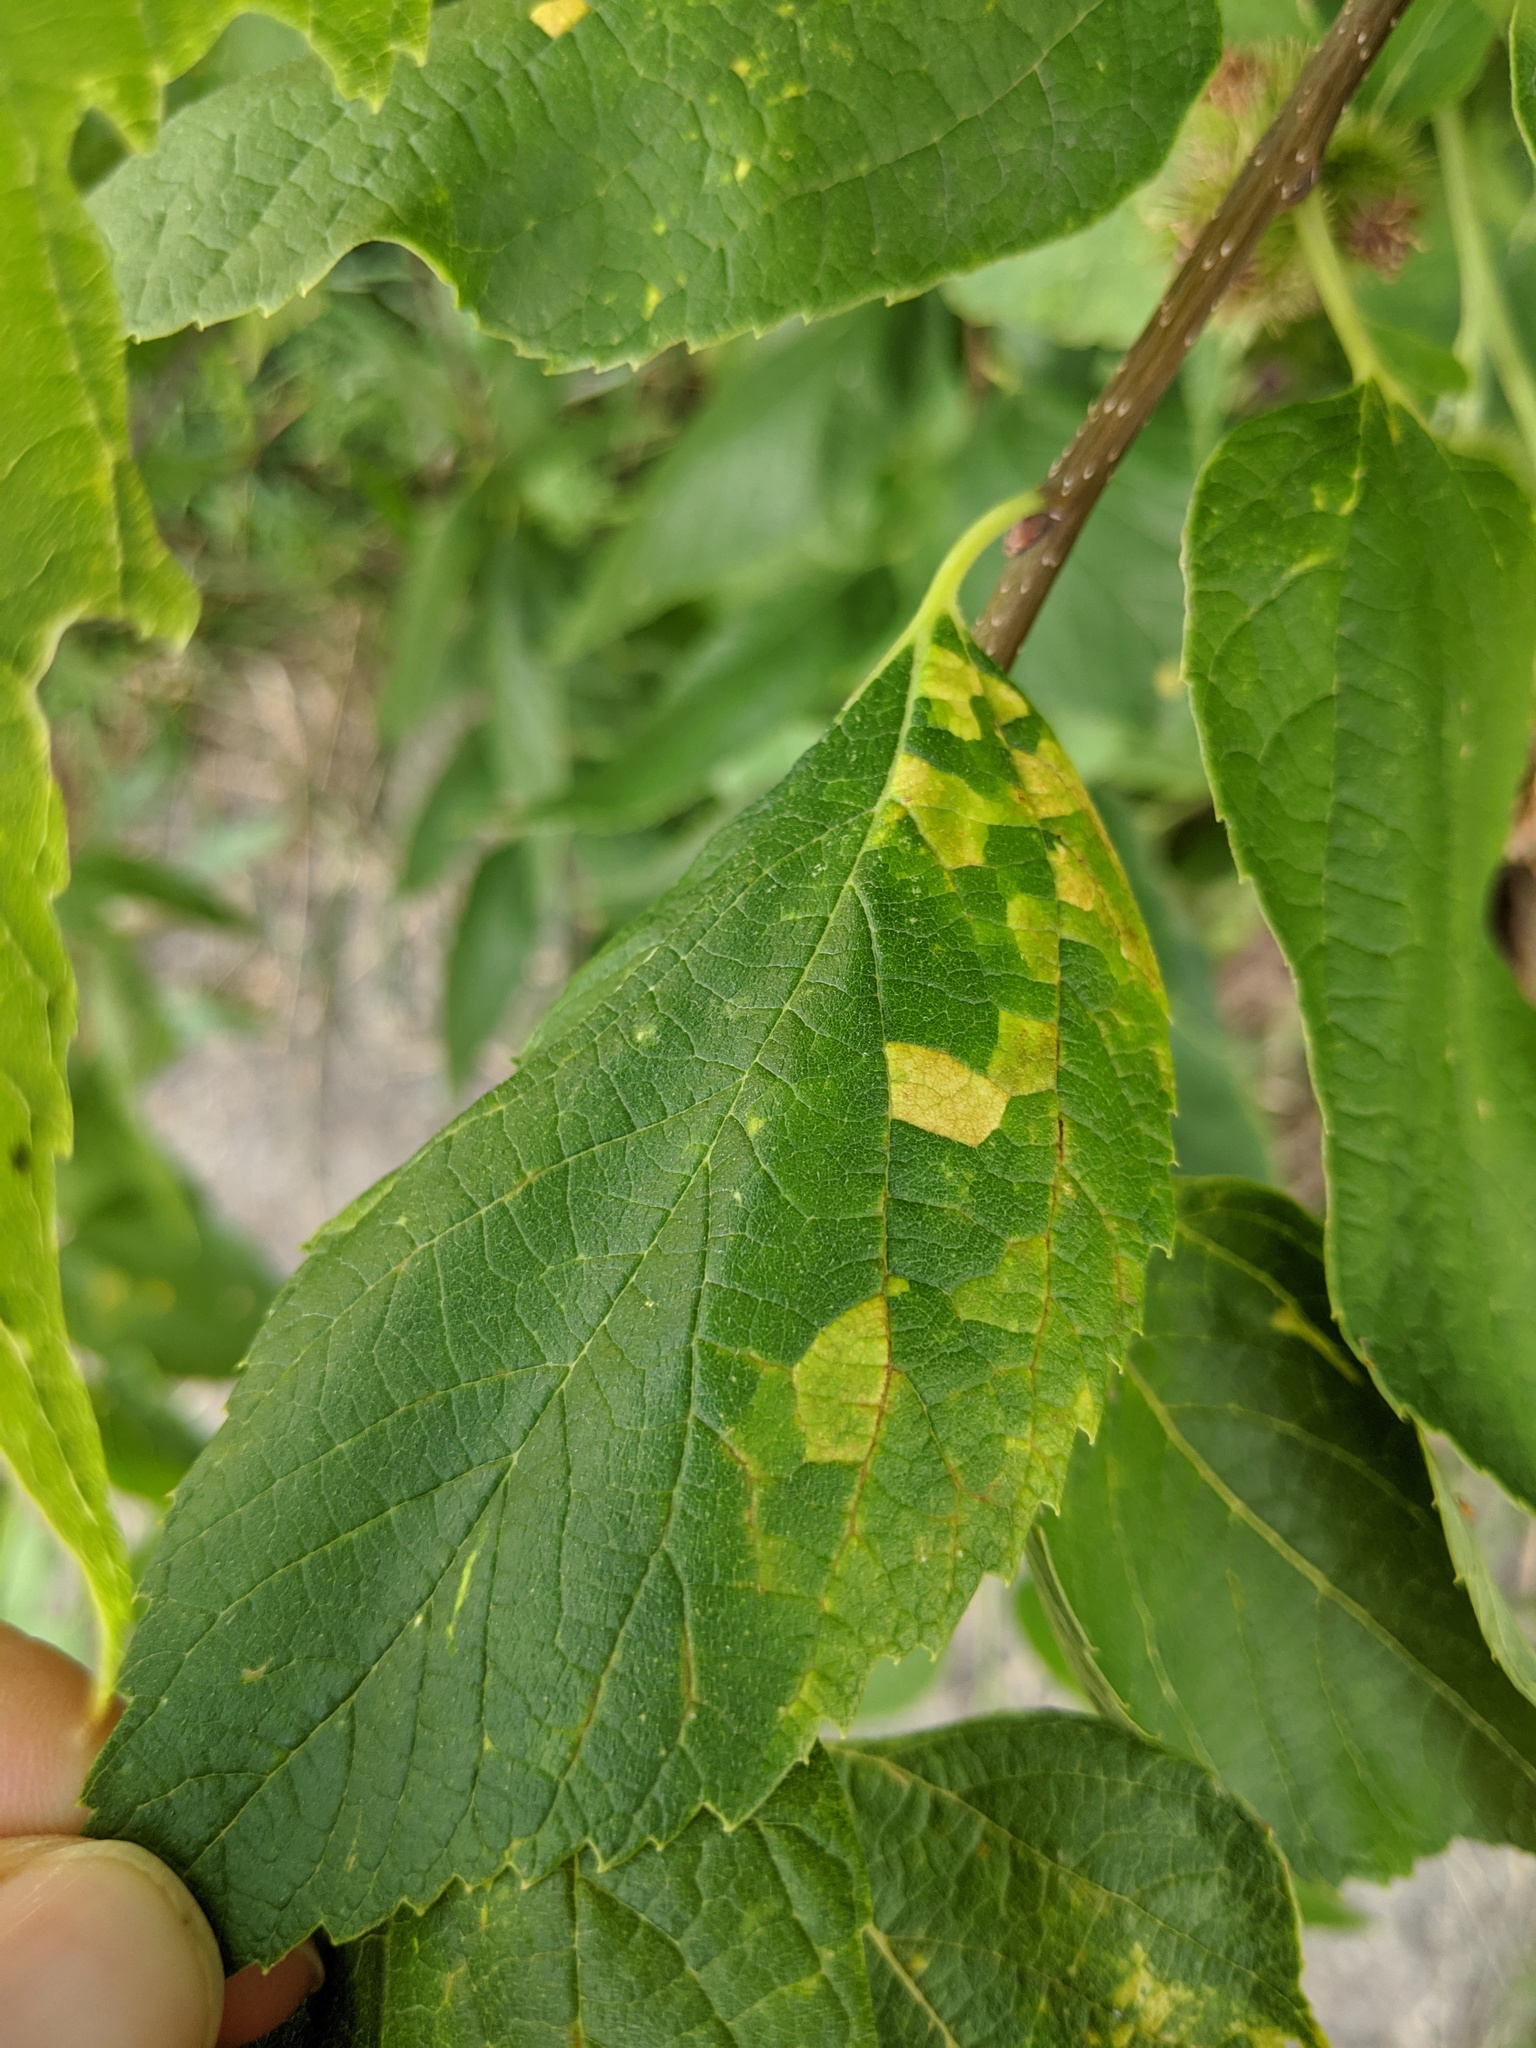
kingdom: Viruses
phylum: Kitrinoviricota
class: Alsuviricetes
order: Martellivirales
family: Closteroviridae
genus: Ampelovirus
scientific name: Ampelovirus
